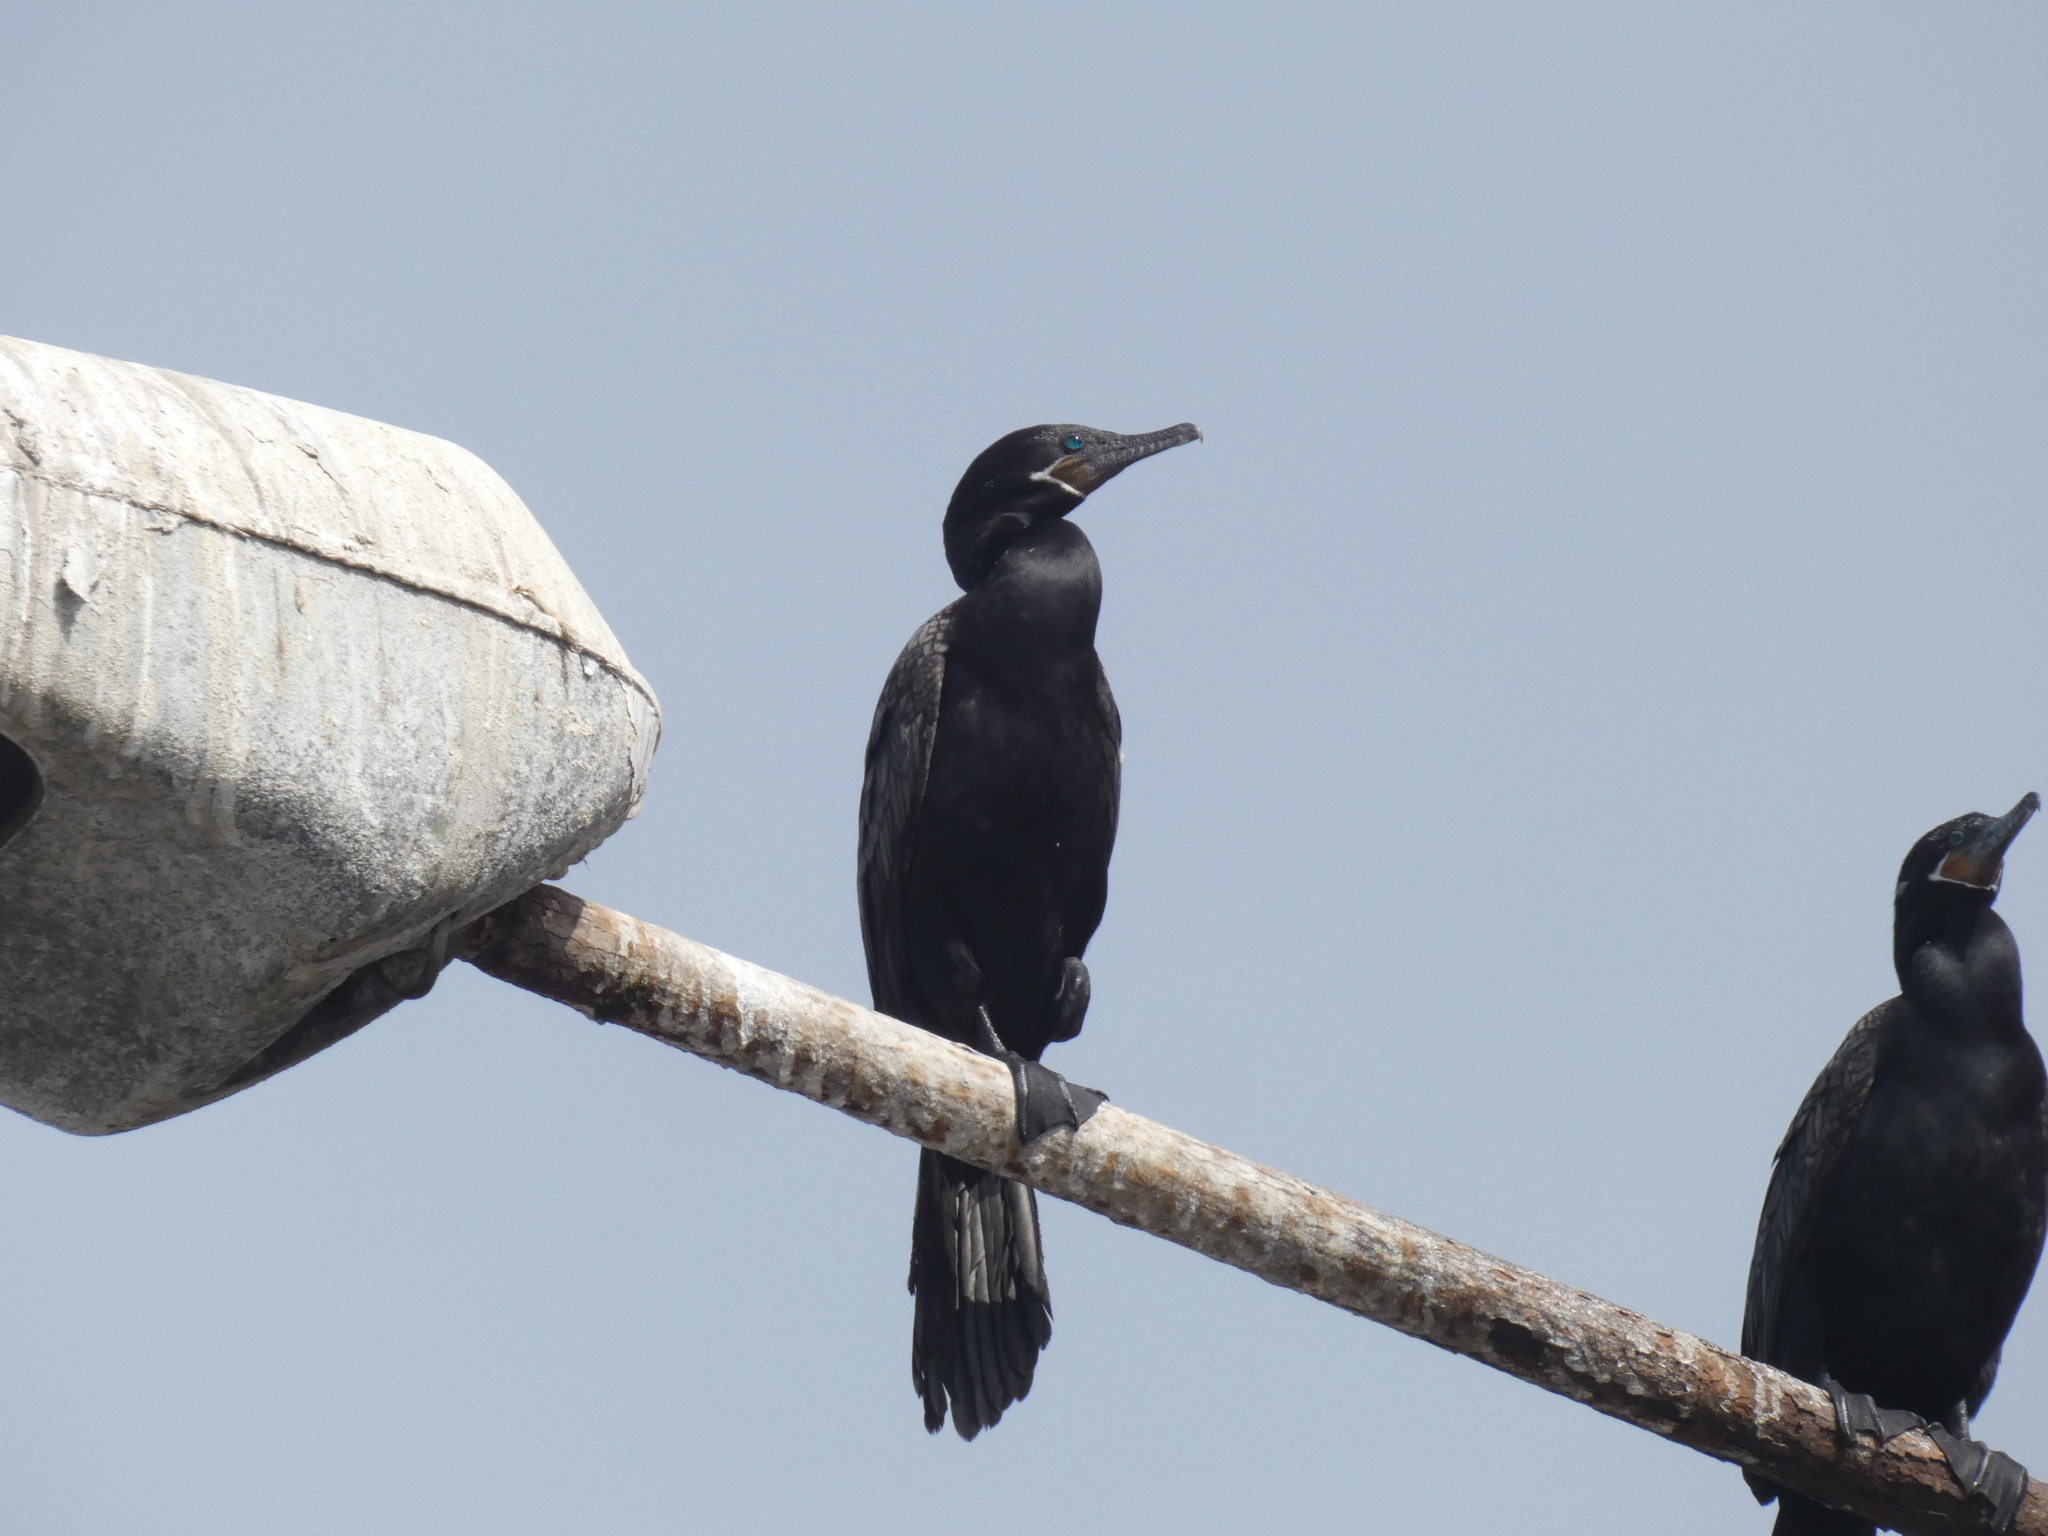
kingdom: Animalia
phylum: Chordata
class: Aves
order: Suliformes
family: Phalacrocoracidae
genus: Phalacrocorax
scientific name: Phalacrocorax brasilianus
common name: Neotropic cormorant
